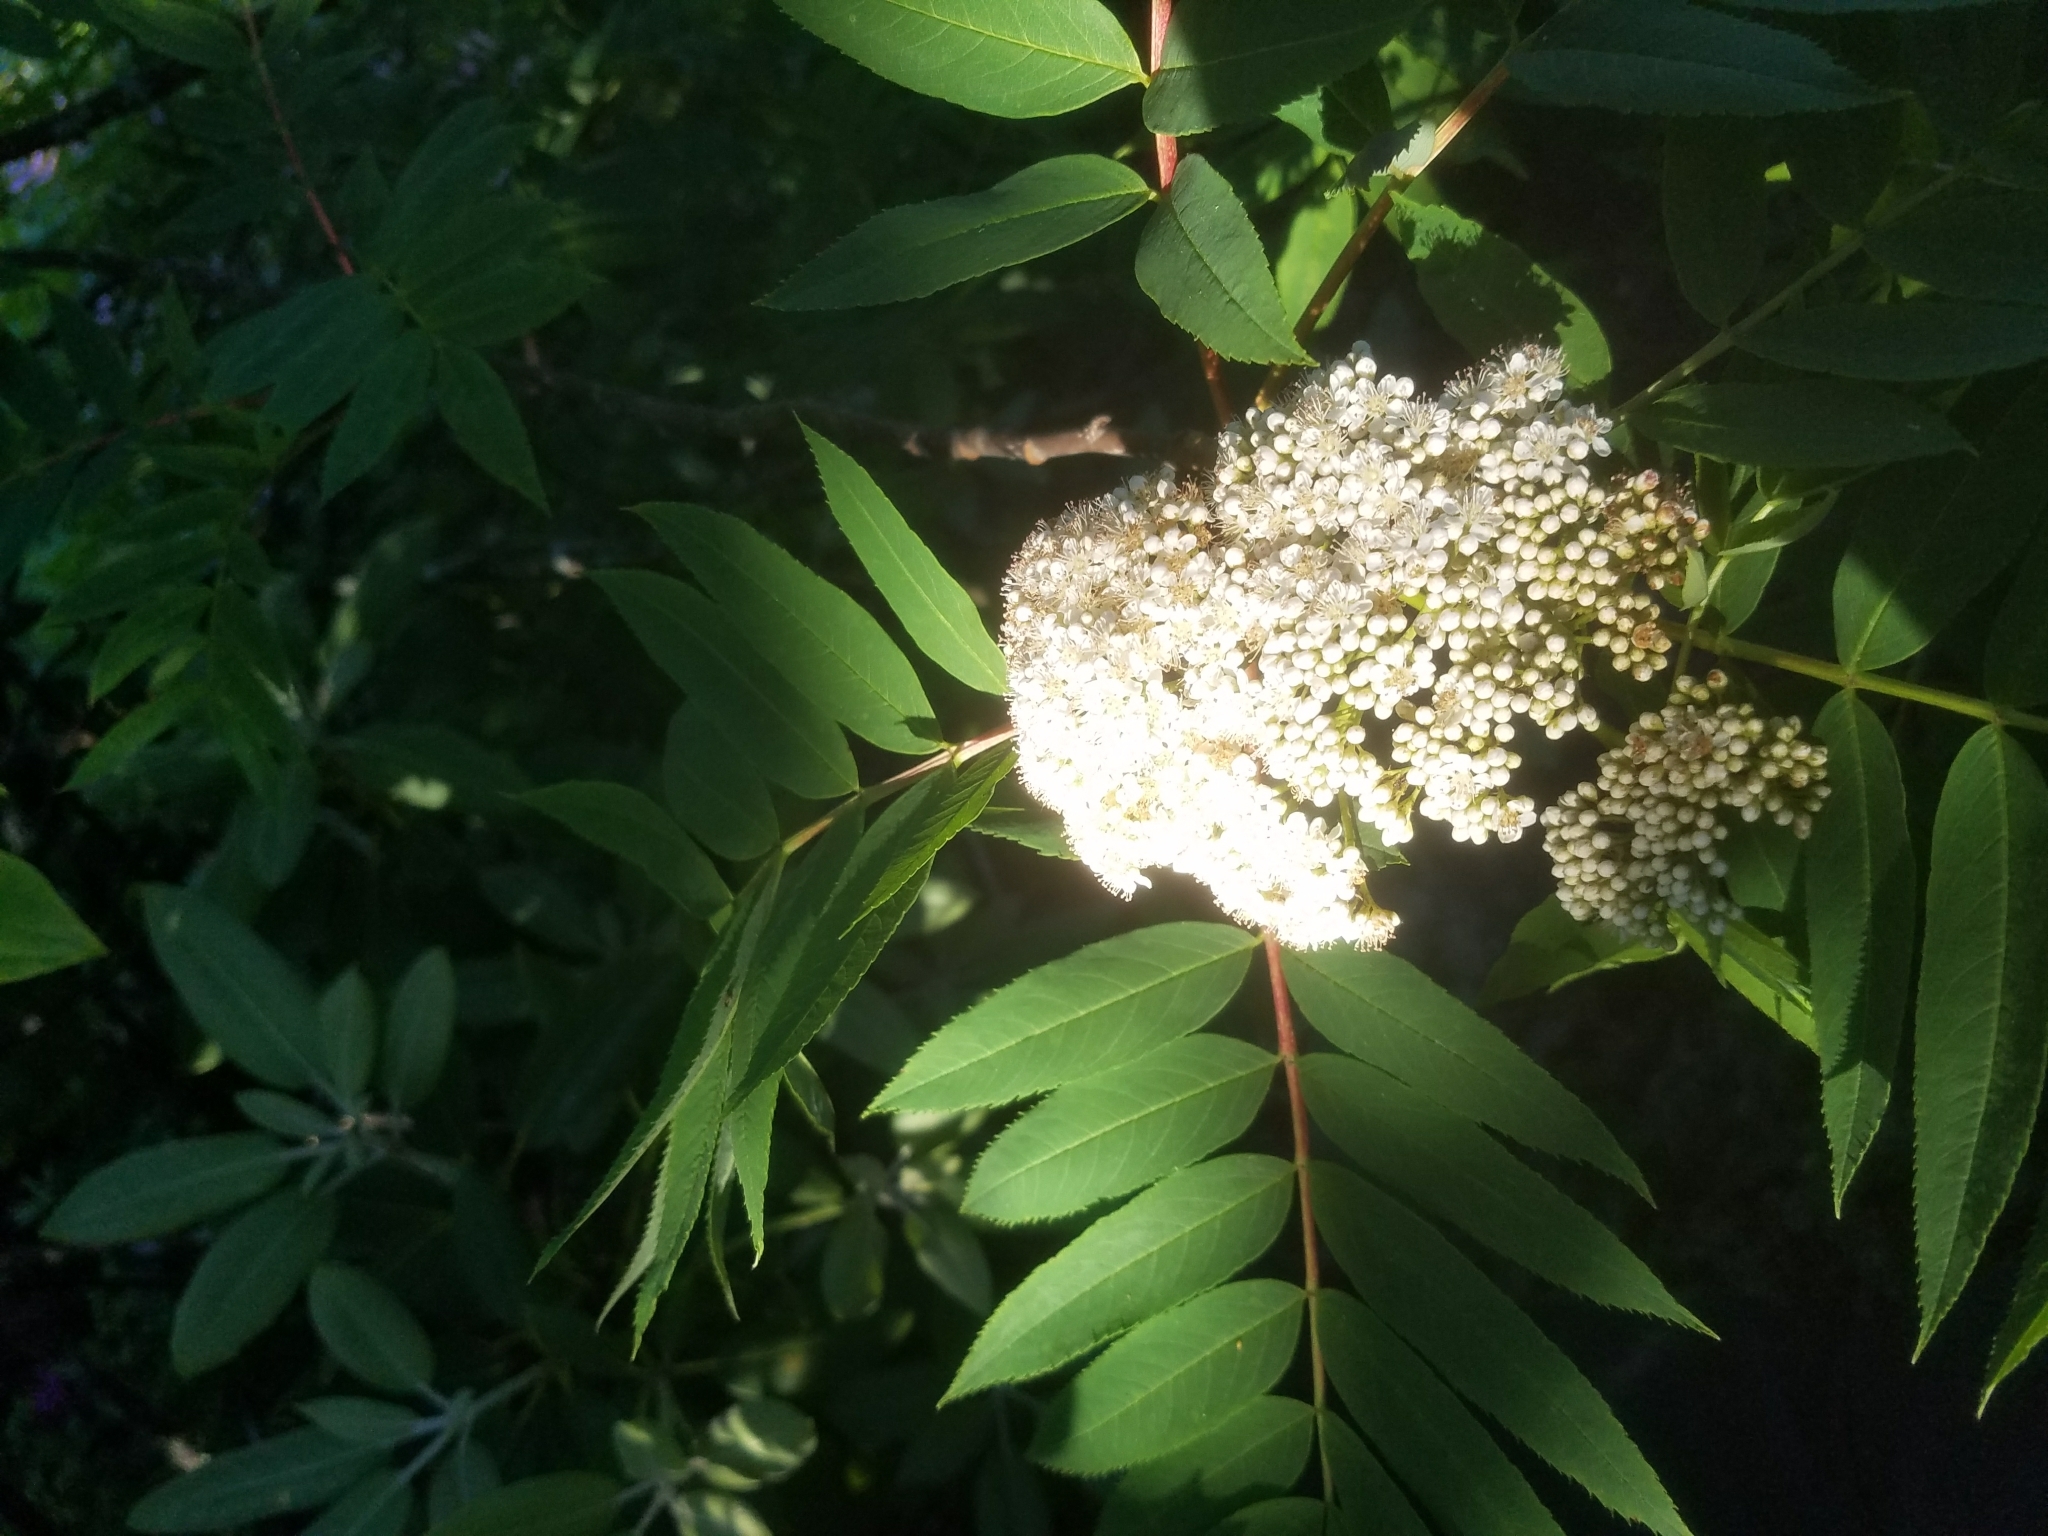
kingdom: Plantae
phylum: Tracheophyta
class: Magnoliopsida
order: Rosales
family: Rosaceae
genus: Sorbus
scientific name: Sorbus americana
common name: American mountain-ash
